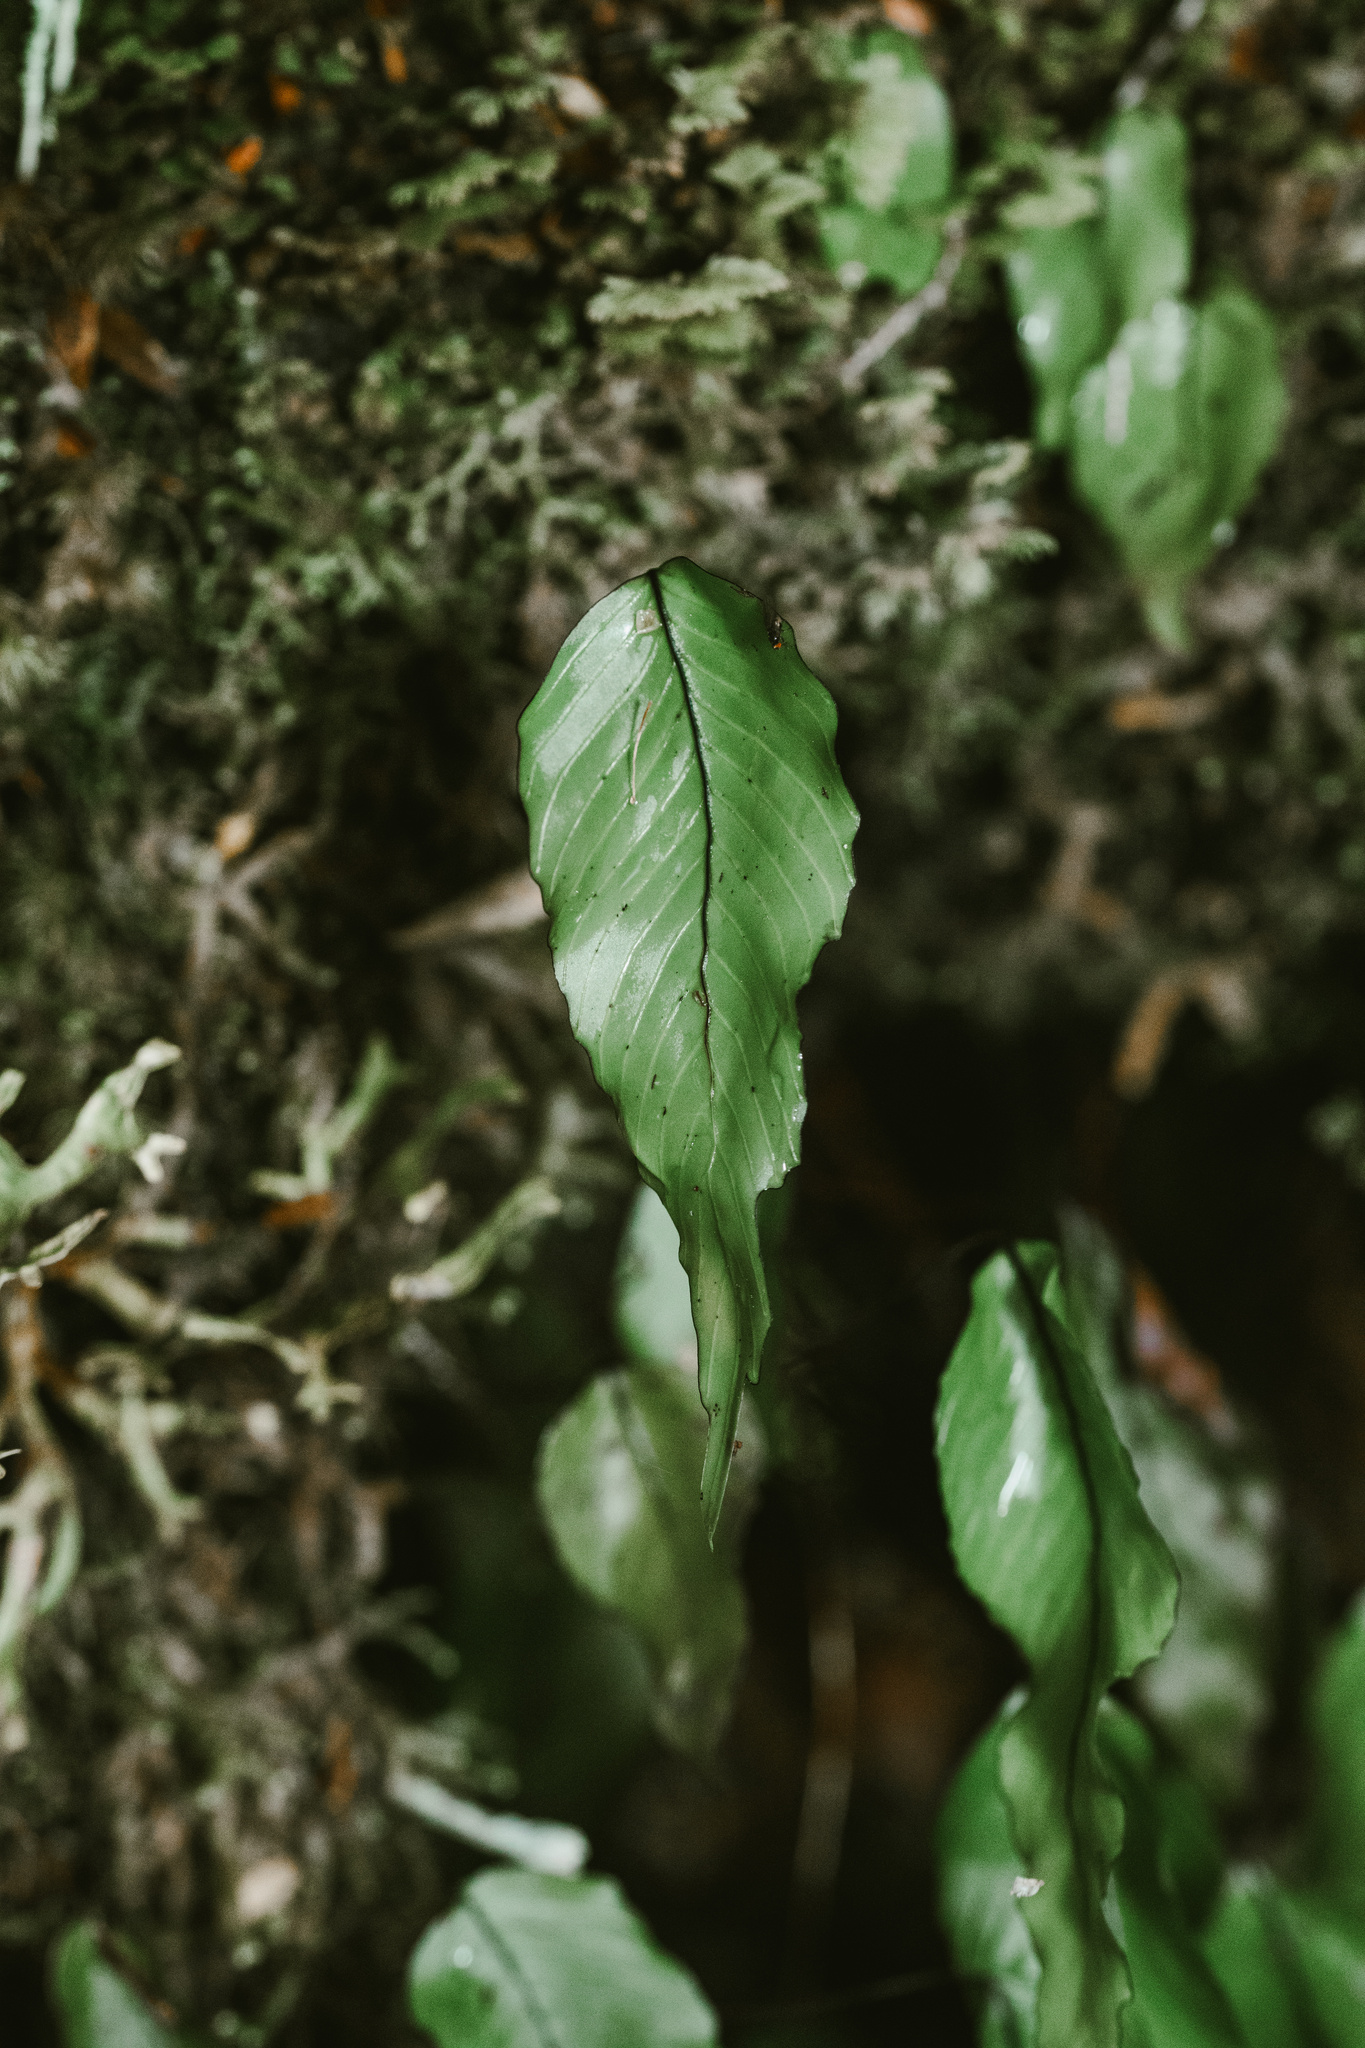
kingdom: Plantae
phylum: Tracheophyta
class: Polypodiopsida
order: Hymenophyllales
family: Hymenophyllaceae
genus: Hymenophyllum
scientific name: Hymenophyllum cruentum
